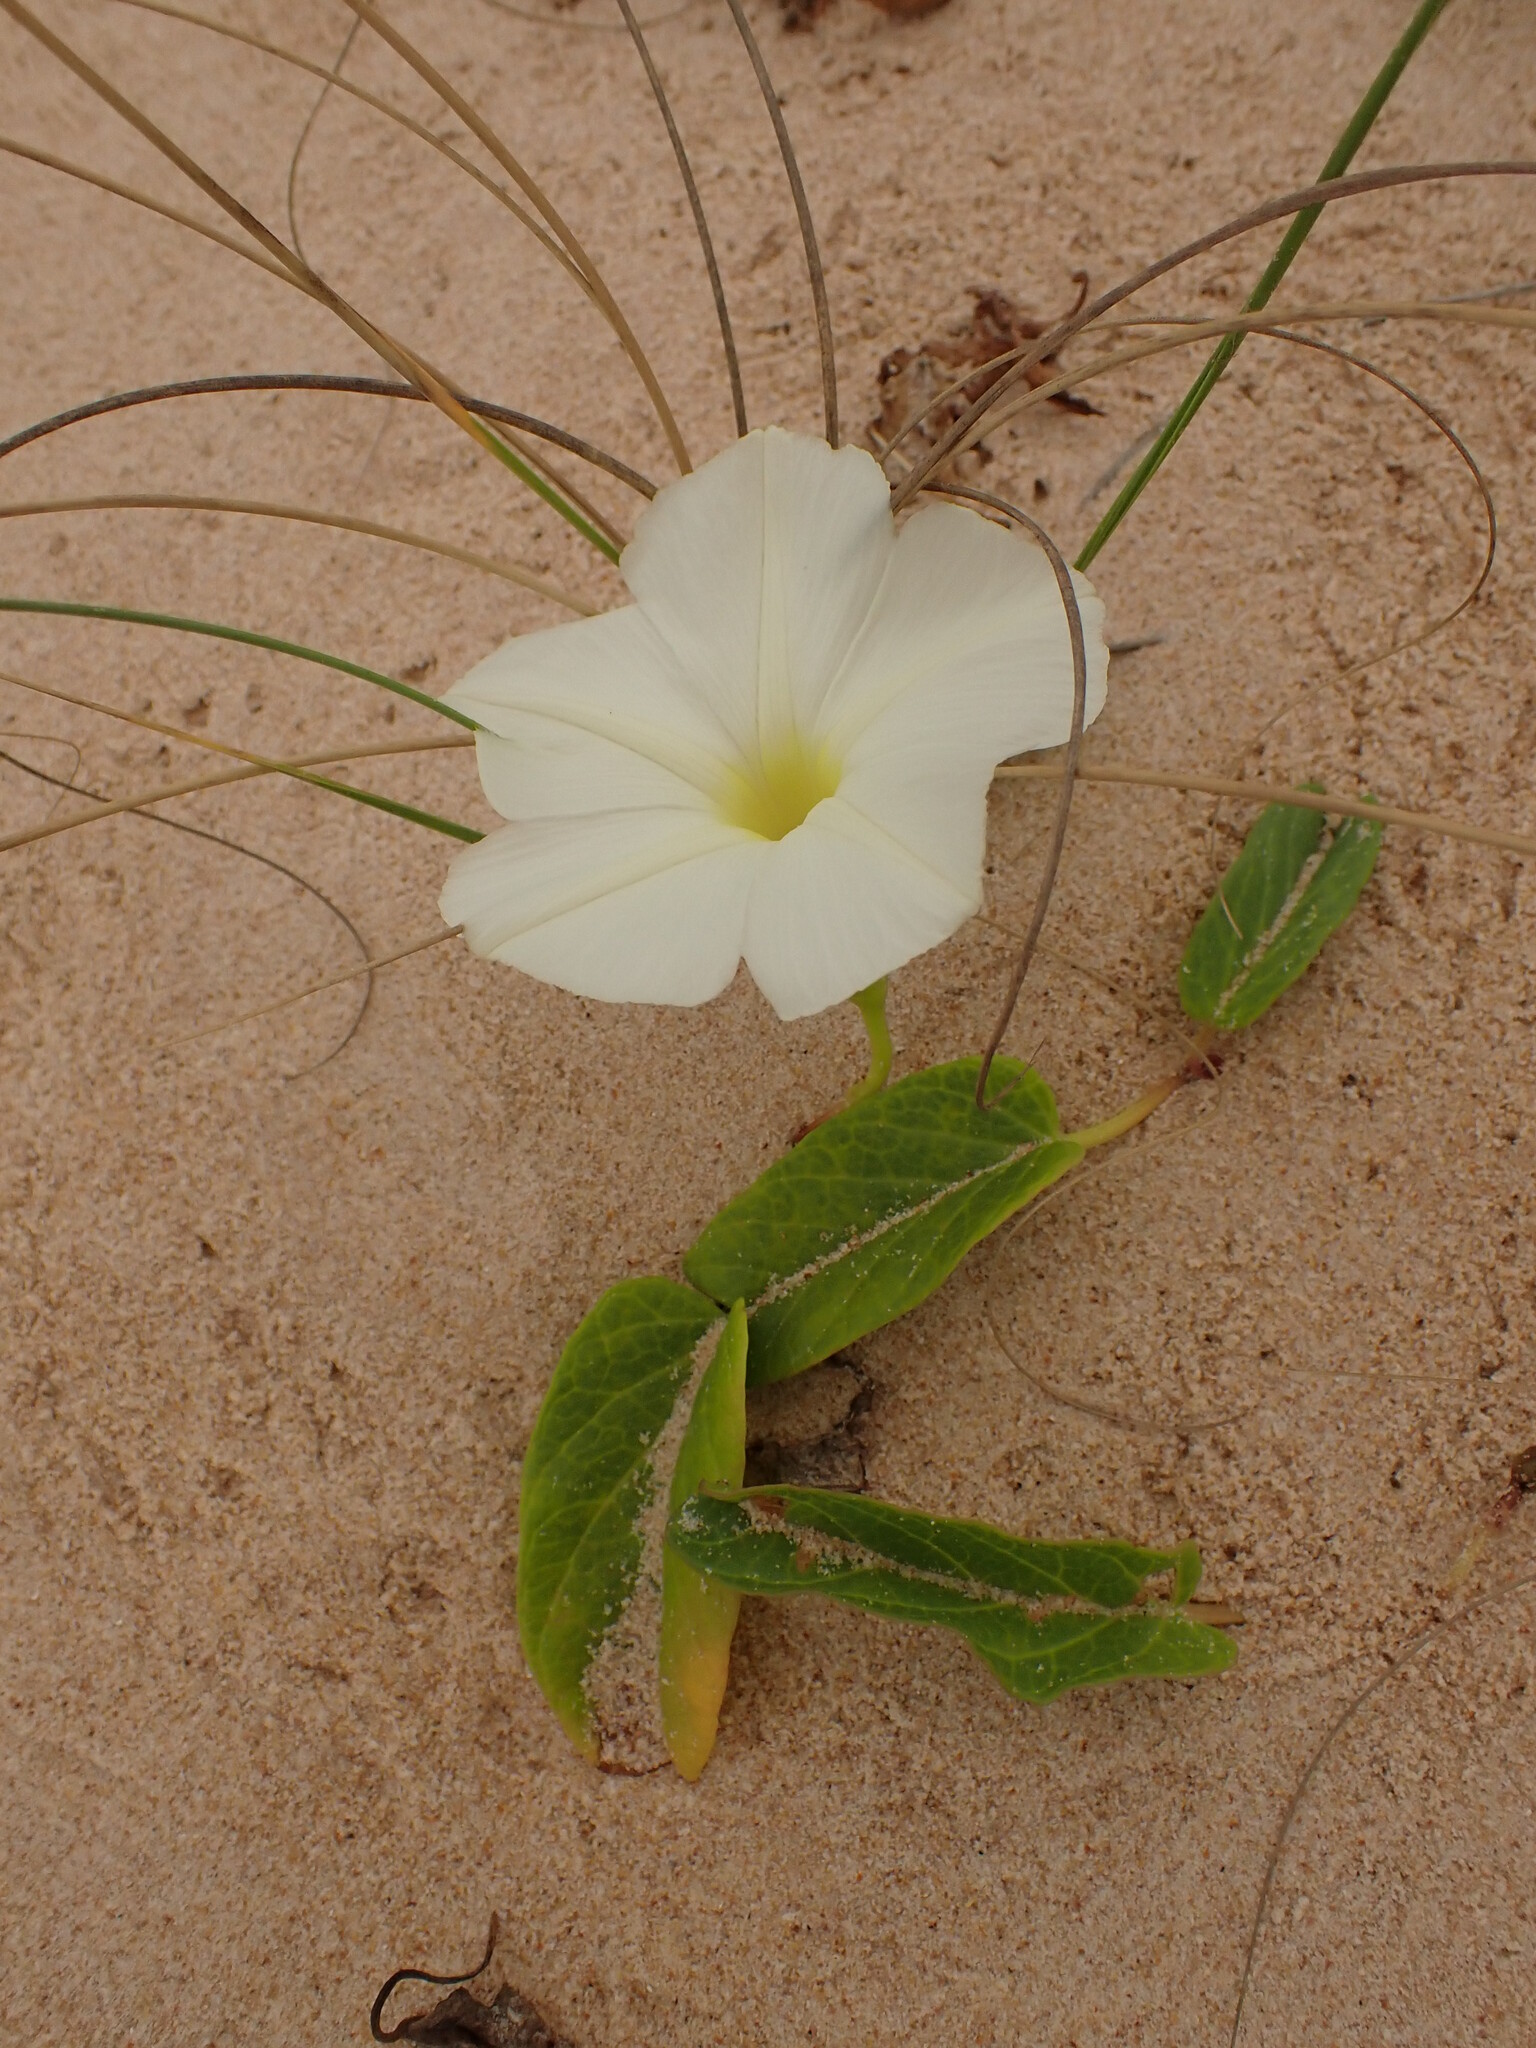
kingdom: Plantae
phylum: Tracheophyta
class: Magnoliopsida
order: Solanales
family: Convolvulaceae
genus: Ipomoea
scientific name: Ipomoea imperati
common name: Fiddle-leaf morning-glory
